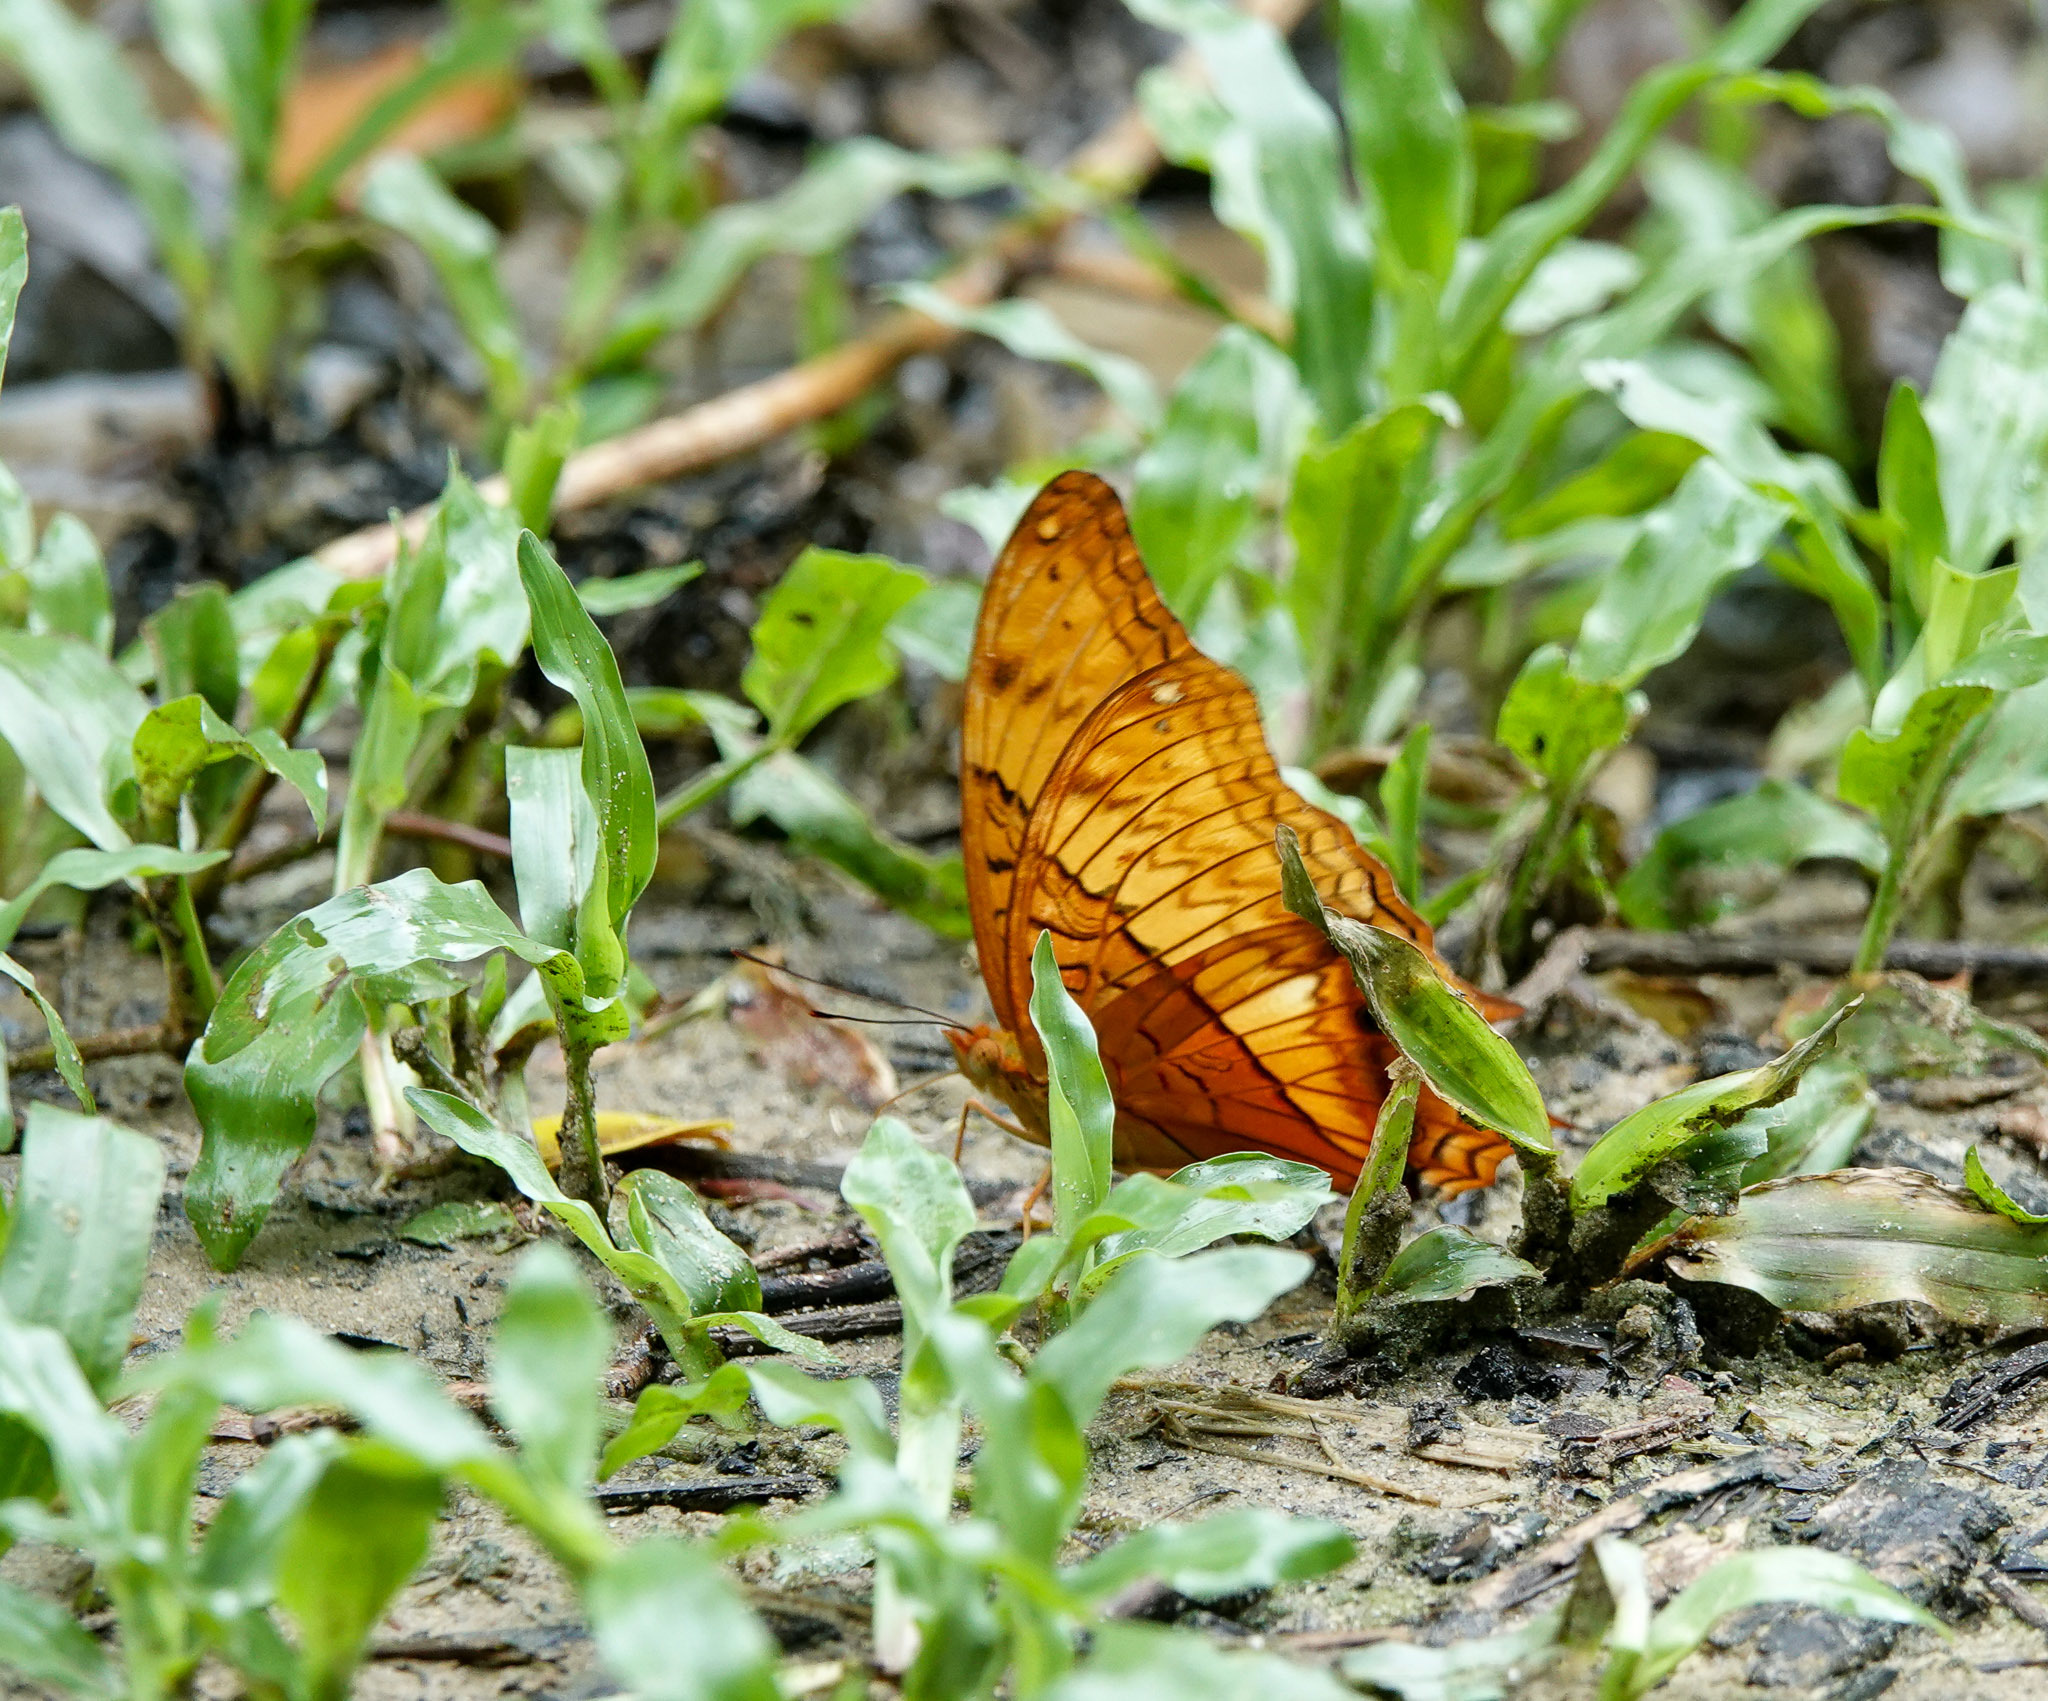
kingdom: Animalia
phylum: Arthropoda
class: Insecta
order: Lepidoptera
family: Nymphalidae
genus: Vindula
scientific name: Vindula erota
